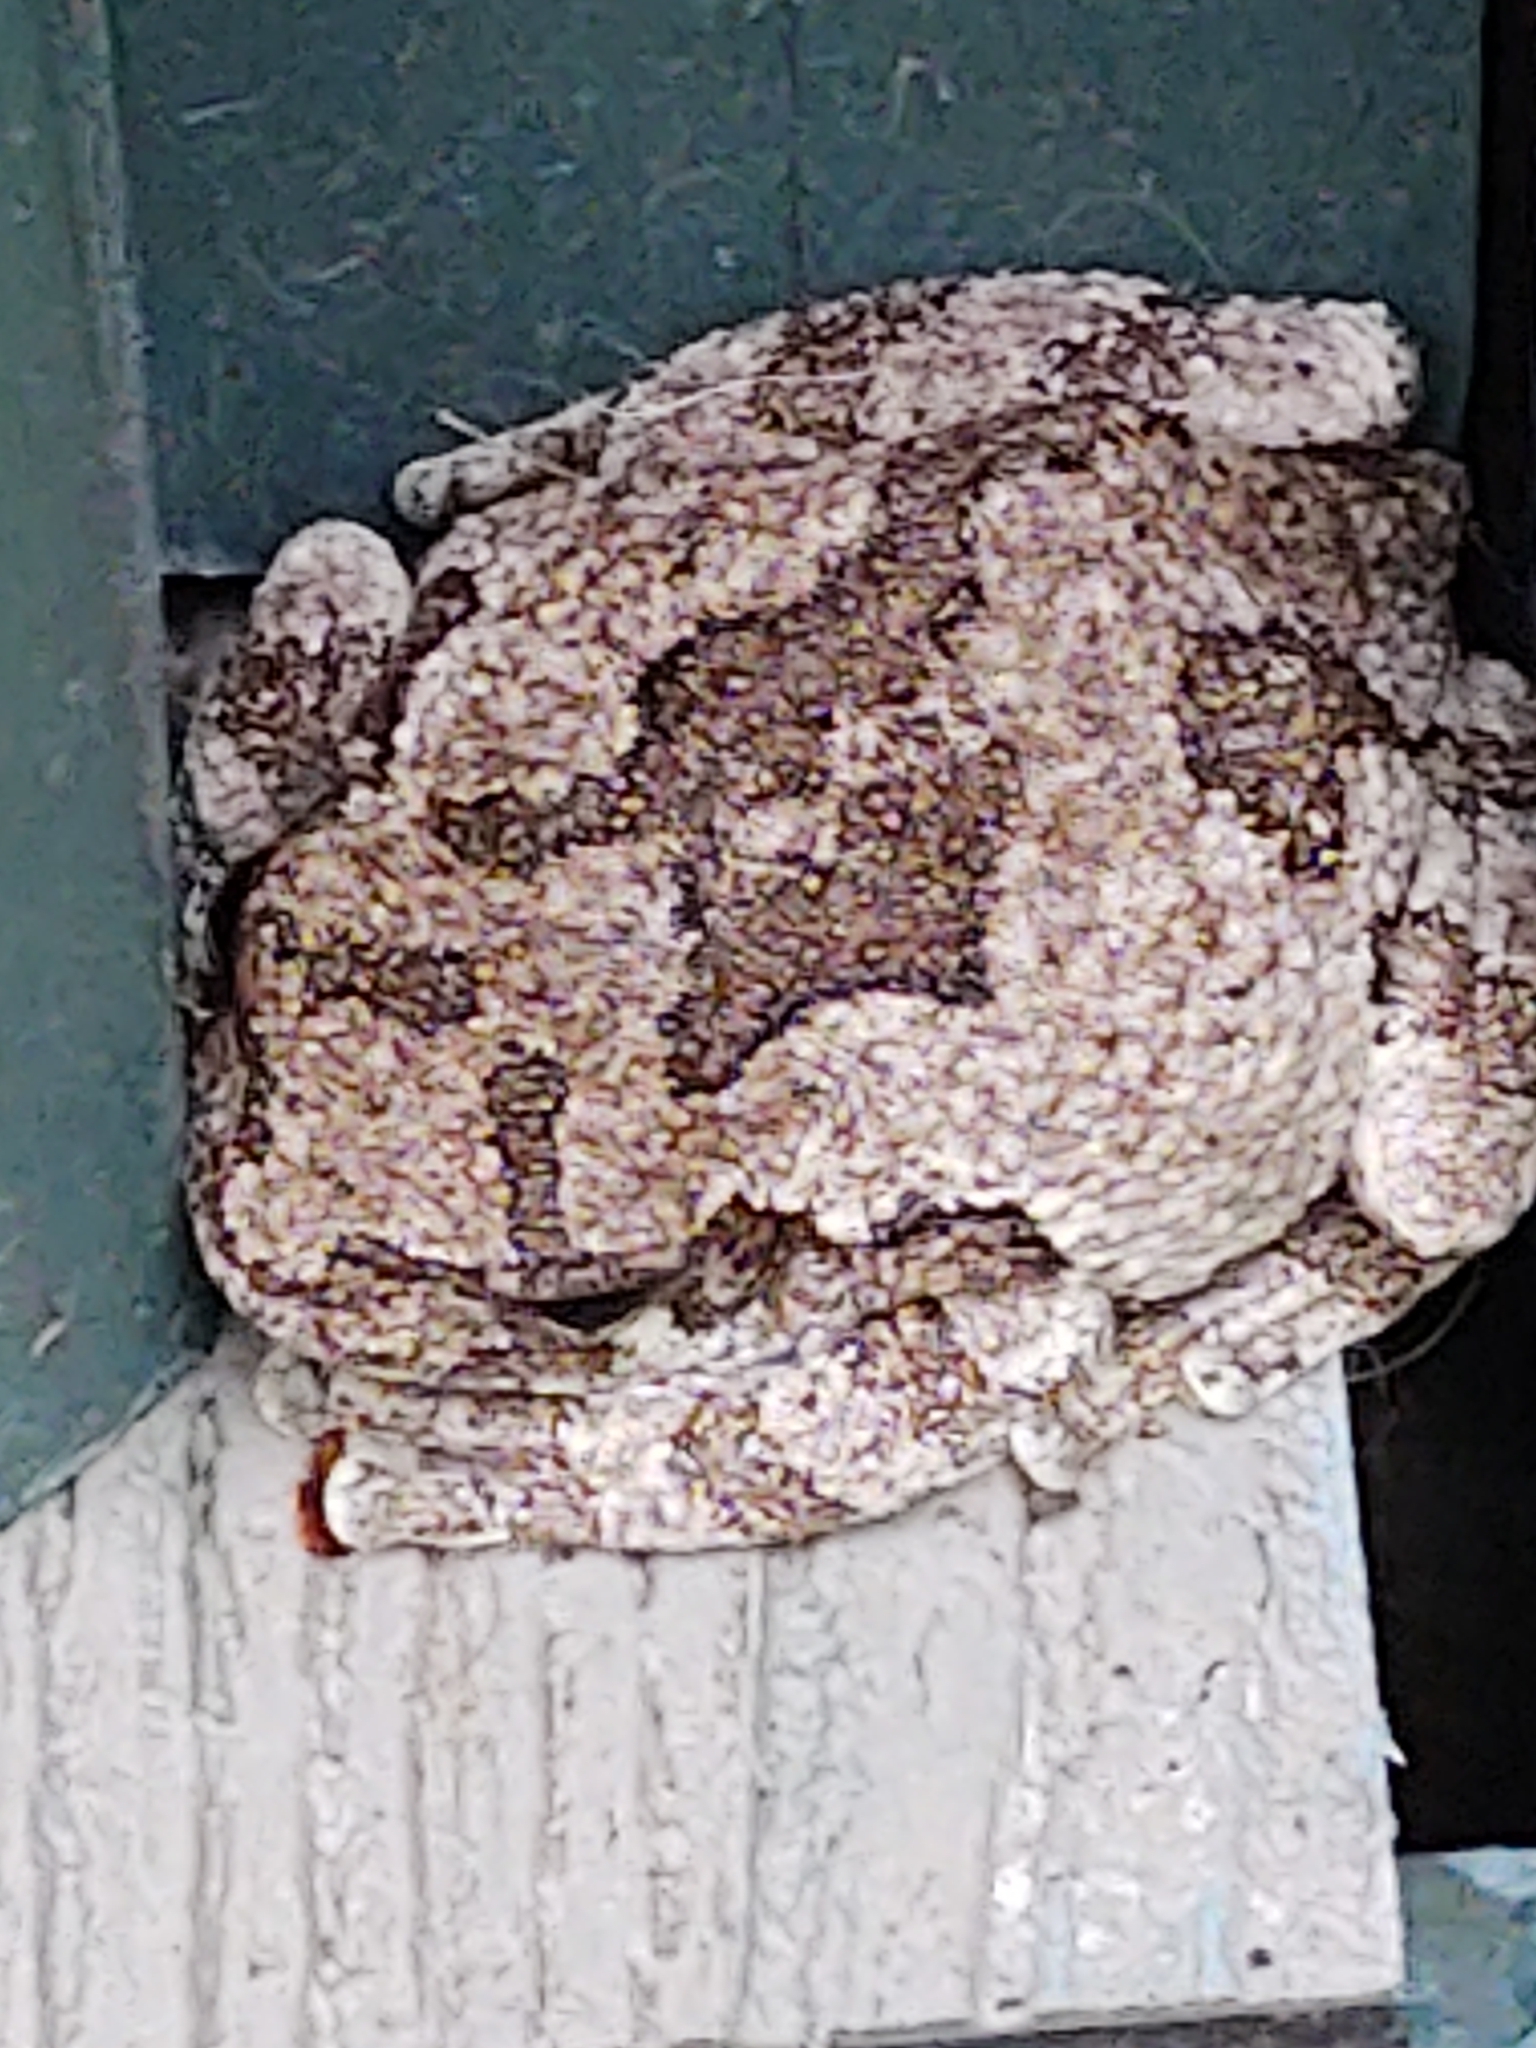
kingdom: Animalia
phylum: Chordata
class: Amphibia
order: Anura
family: Hylidae
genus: Dryophytes
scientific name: Dryophytes versicolor
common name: Gray treefrog
